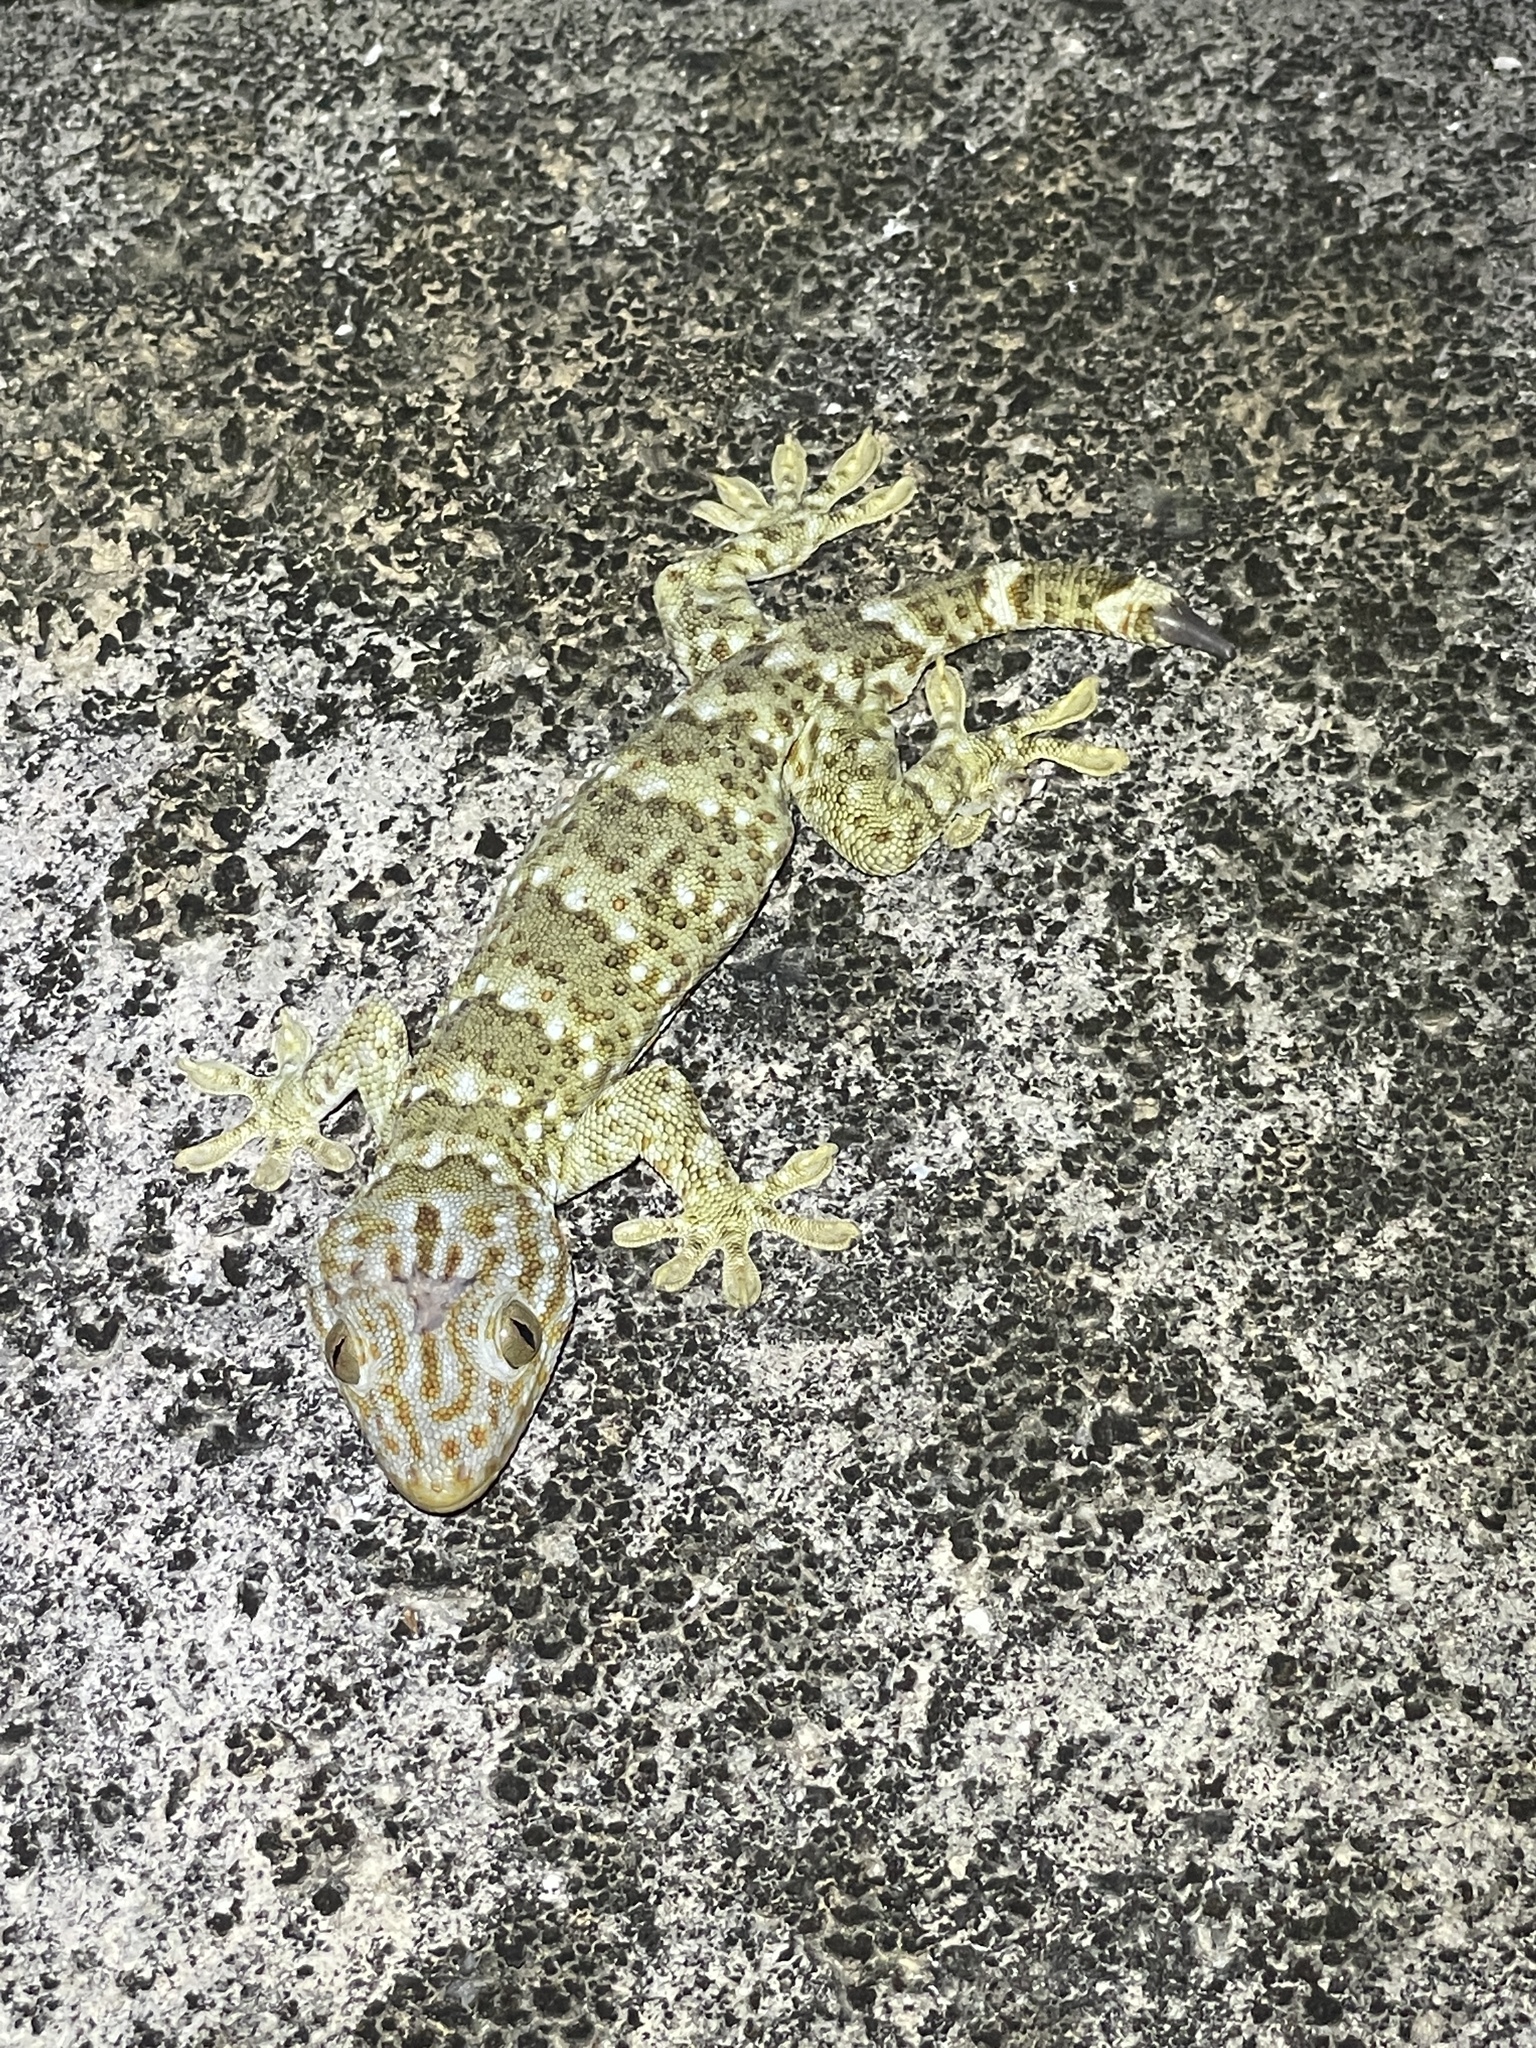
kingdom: Animalia
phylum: Chordata
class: Squamata
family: Gekkonidae
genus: Gekko
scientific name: Gekko reevesii
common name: Reeves’ tokay gecko
